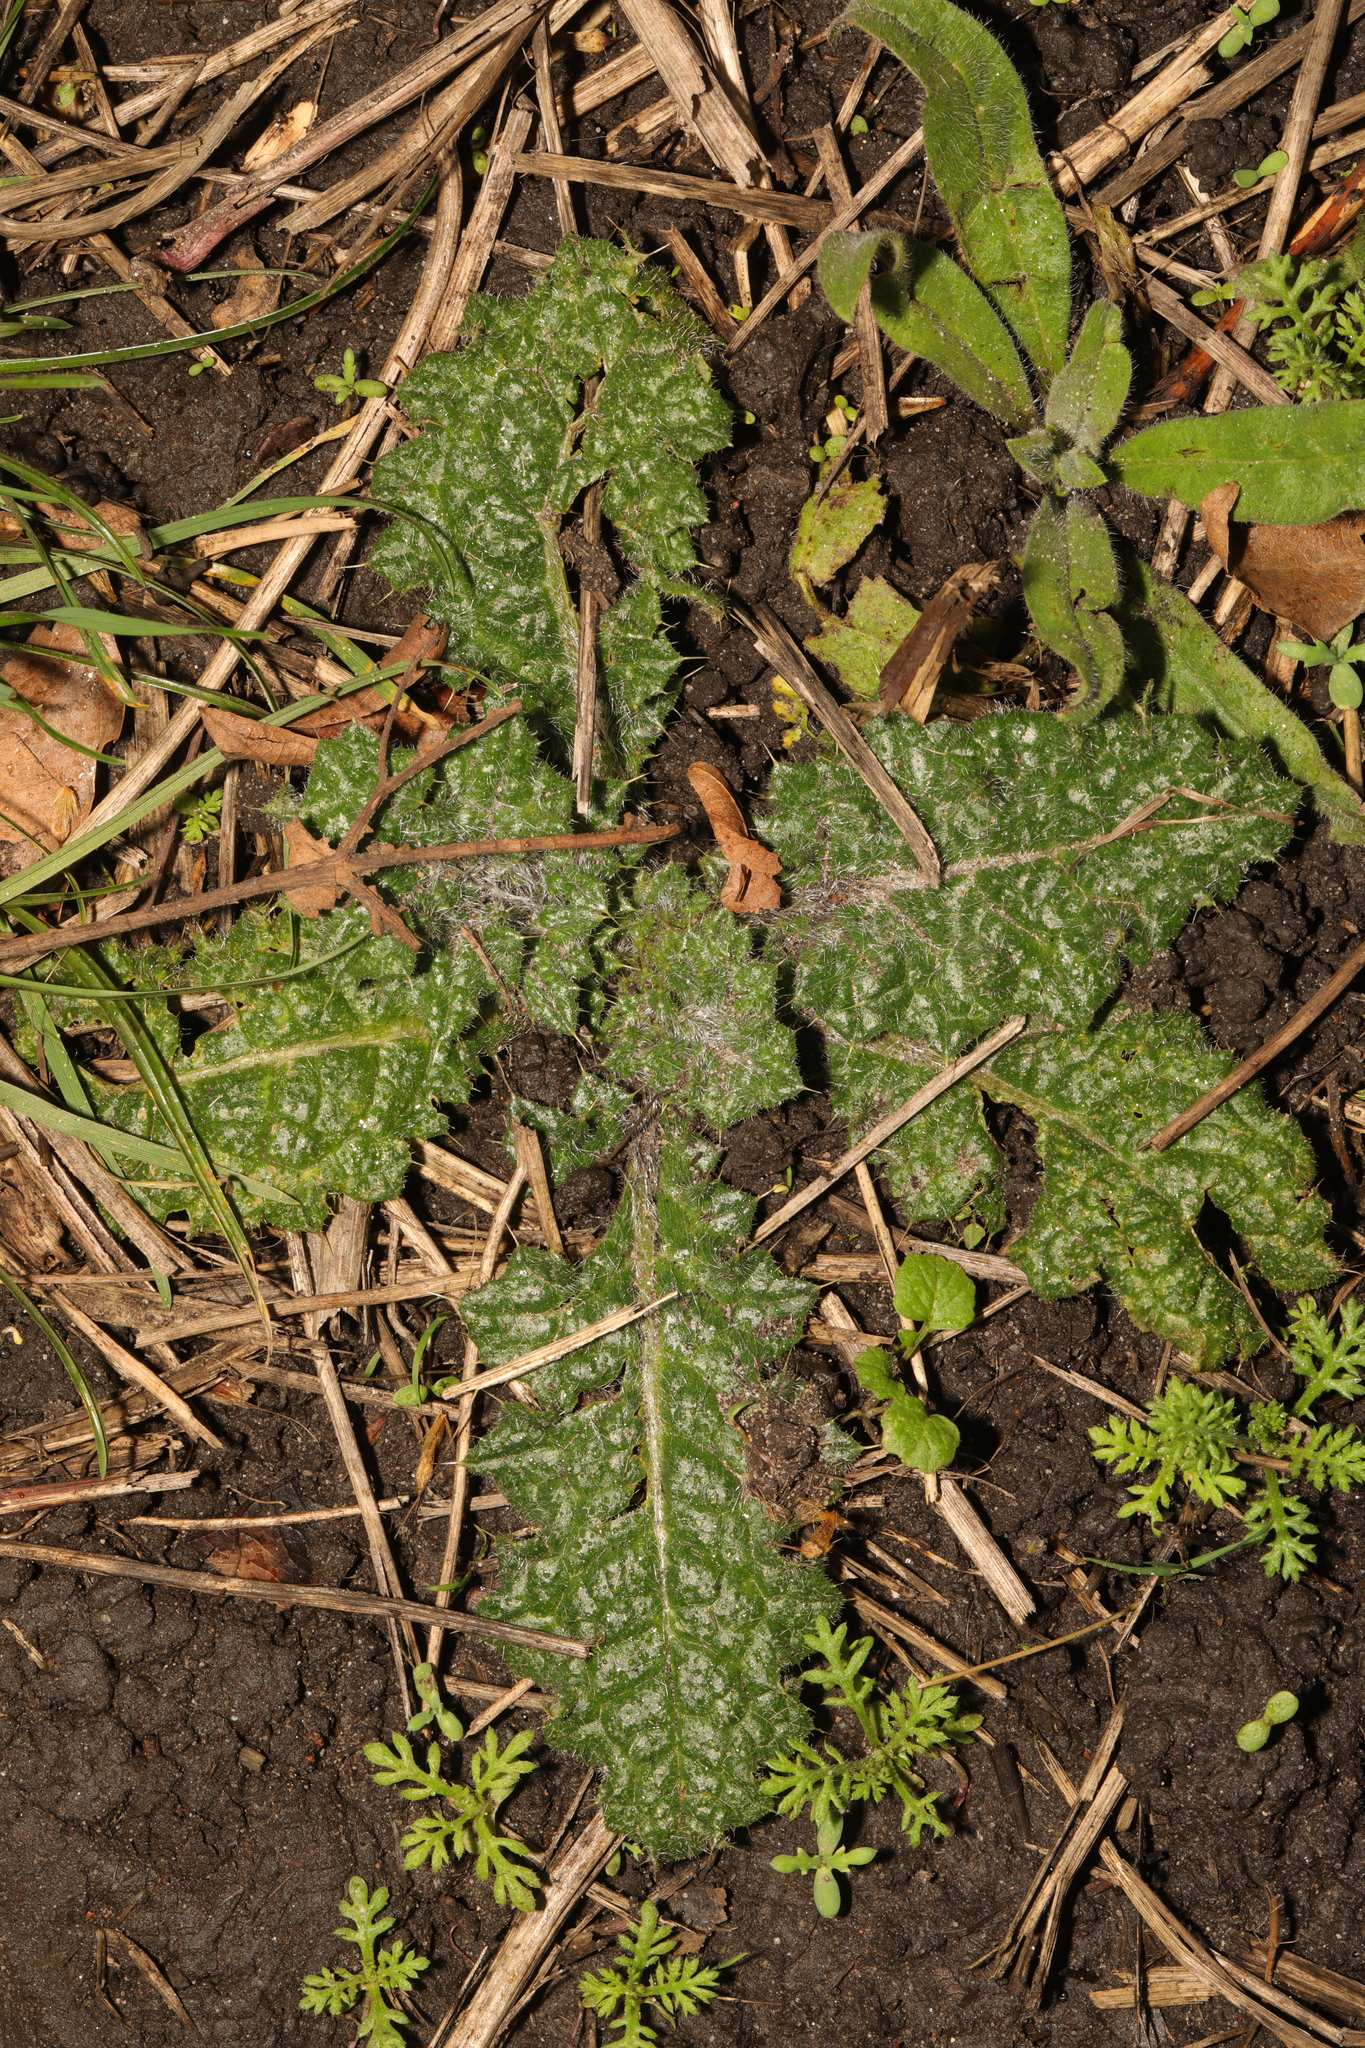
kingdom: Plantae
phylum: Tracheophyta
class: Magnoliopsida
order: Asterales
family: Asteraceae
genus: Helminthotheca
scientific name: Helminthotheca echioides
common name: Ox-tongue
